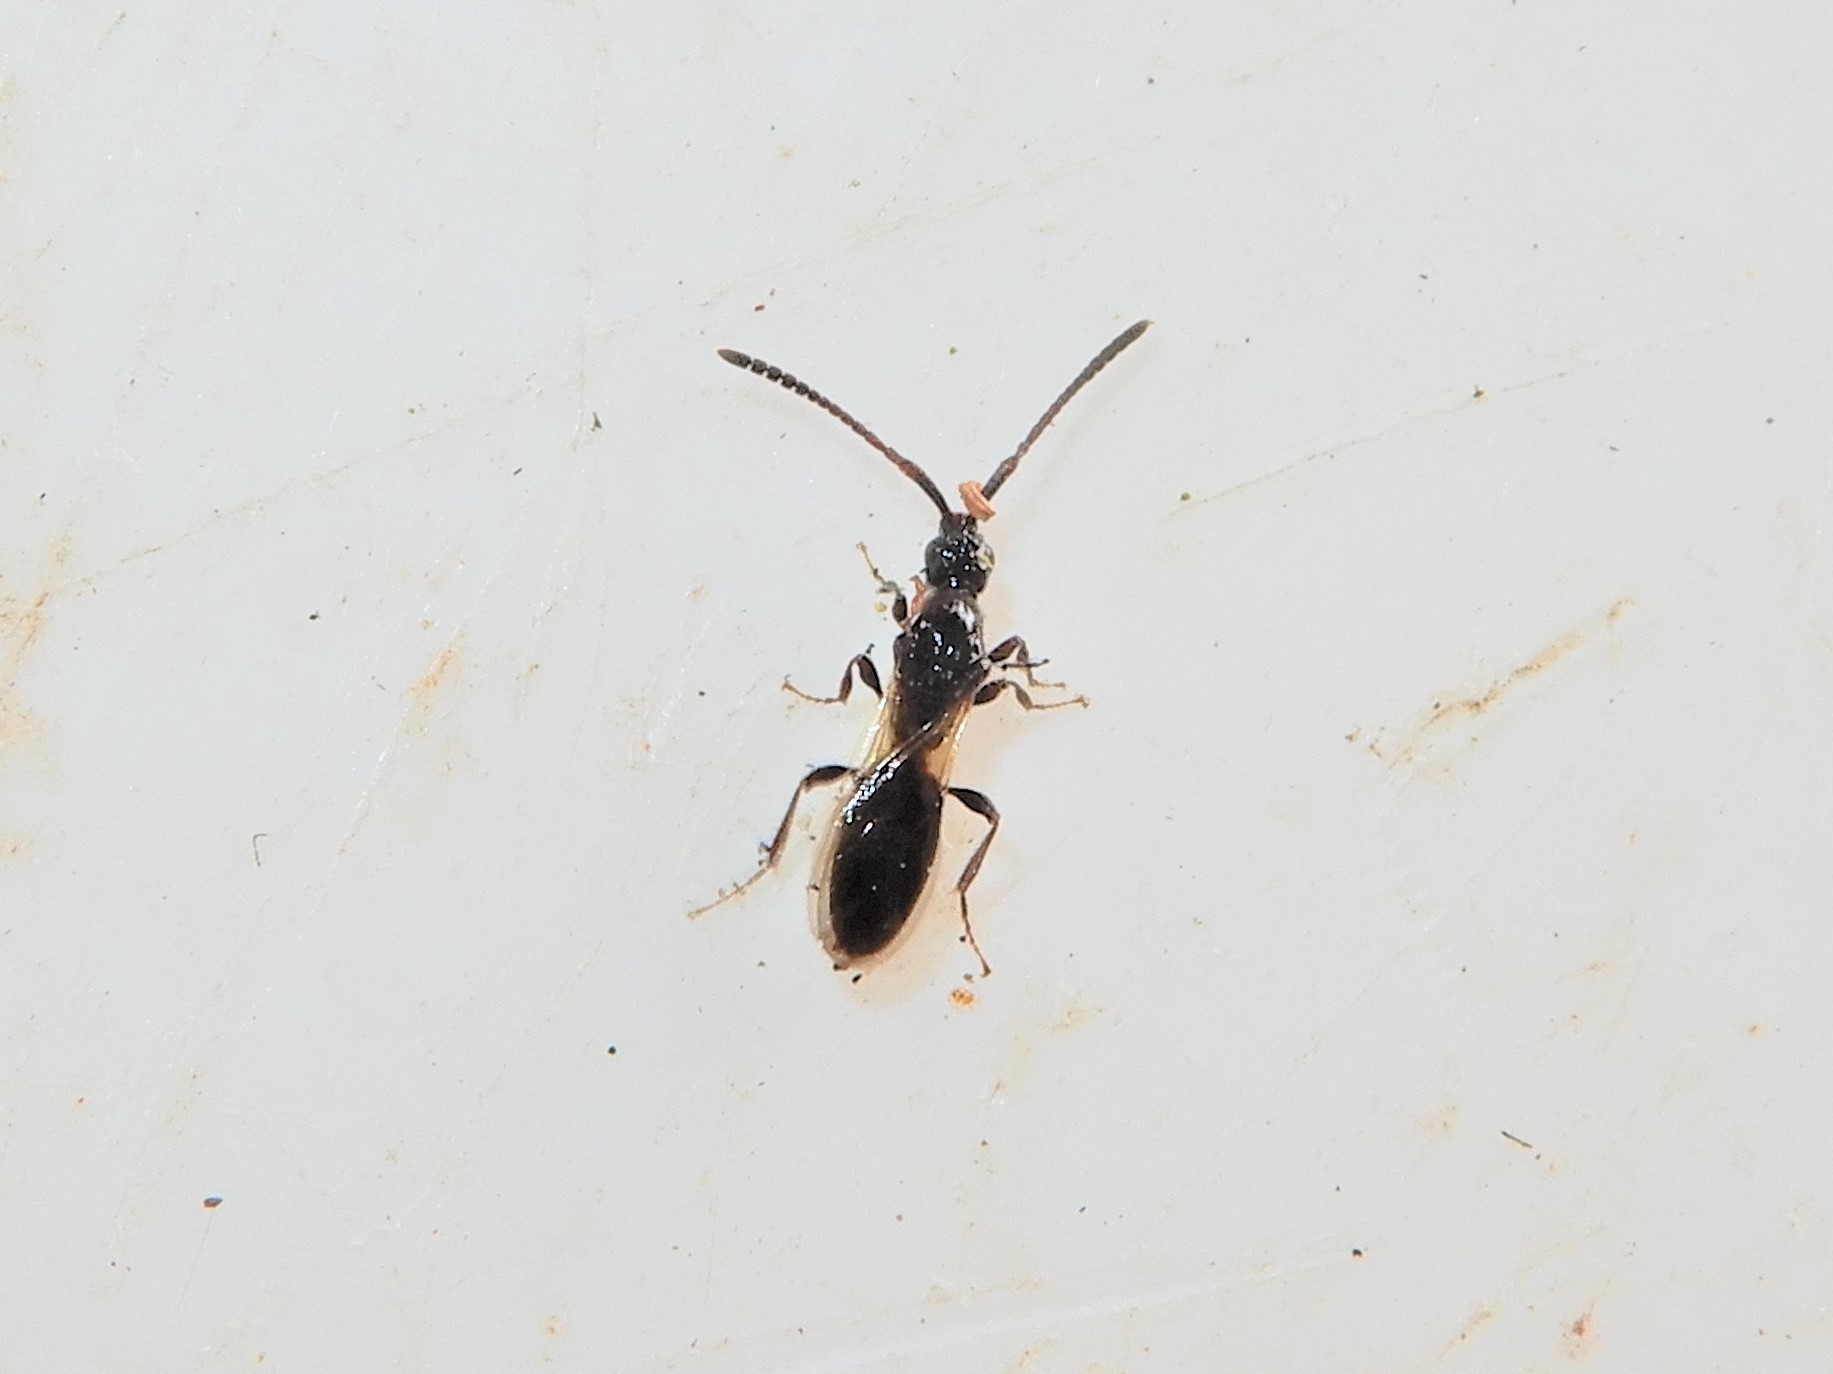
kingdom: Animalia
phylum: Arthropoda
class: Insecta
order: Hymenoptera
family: Diapriidae
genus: Neurogalesus
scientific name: Neurogalesus carinatus
